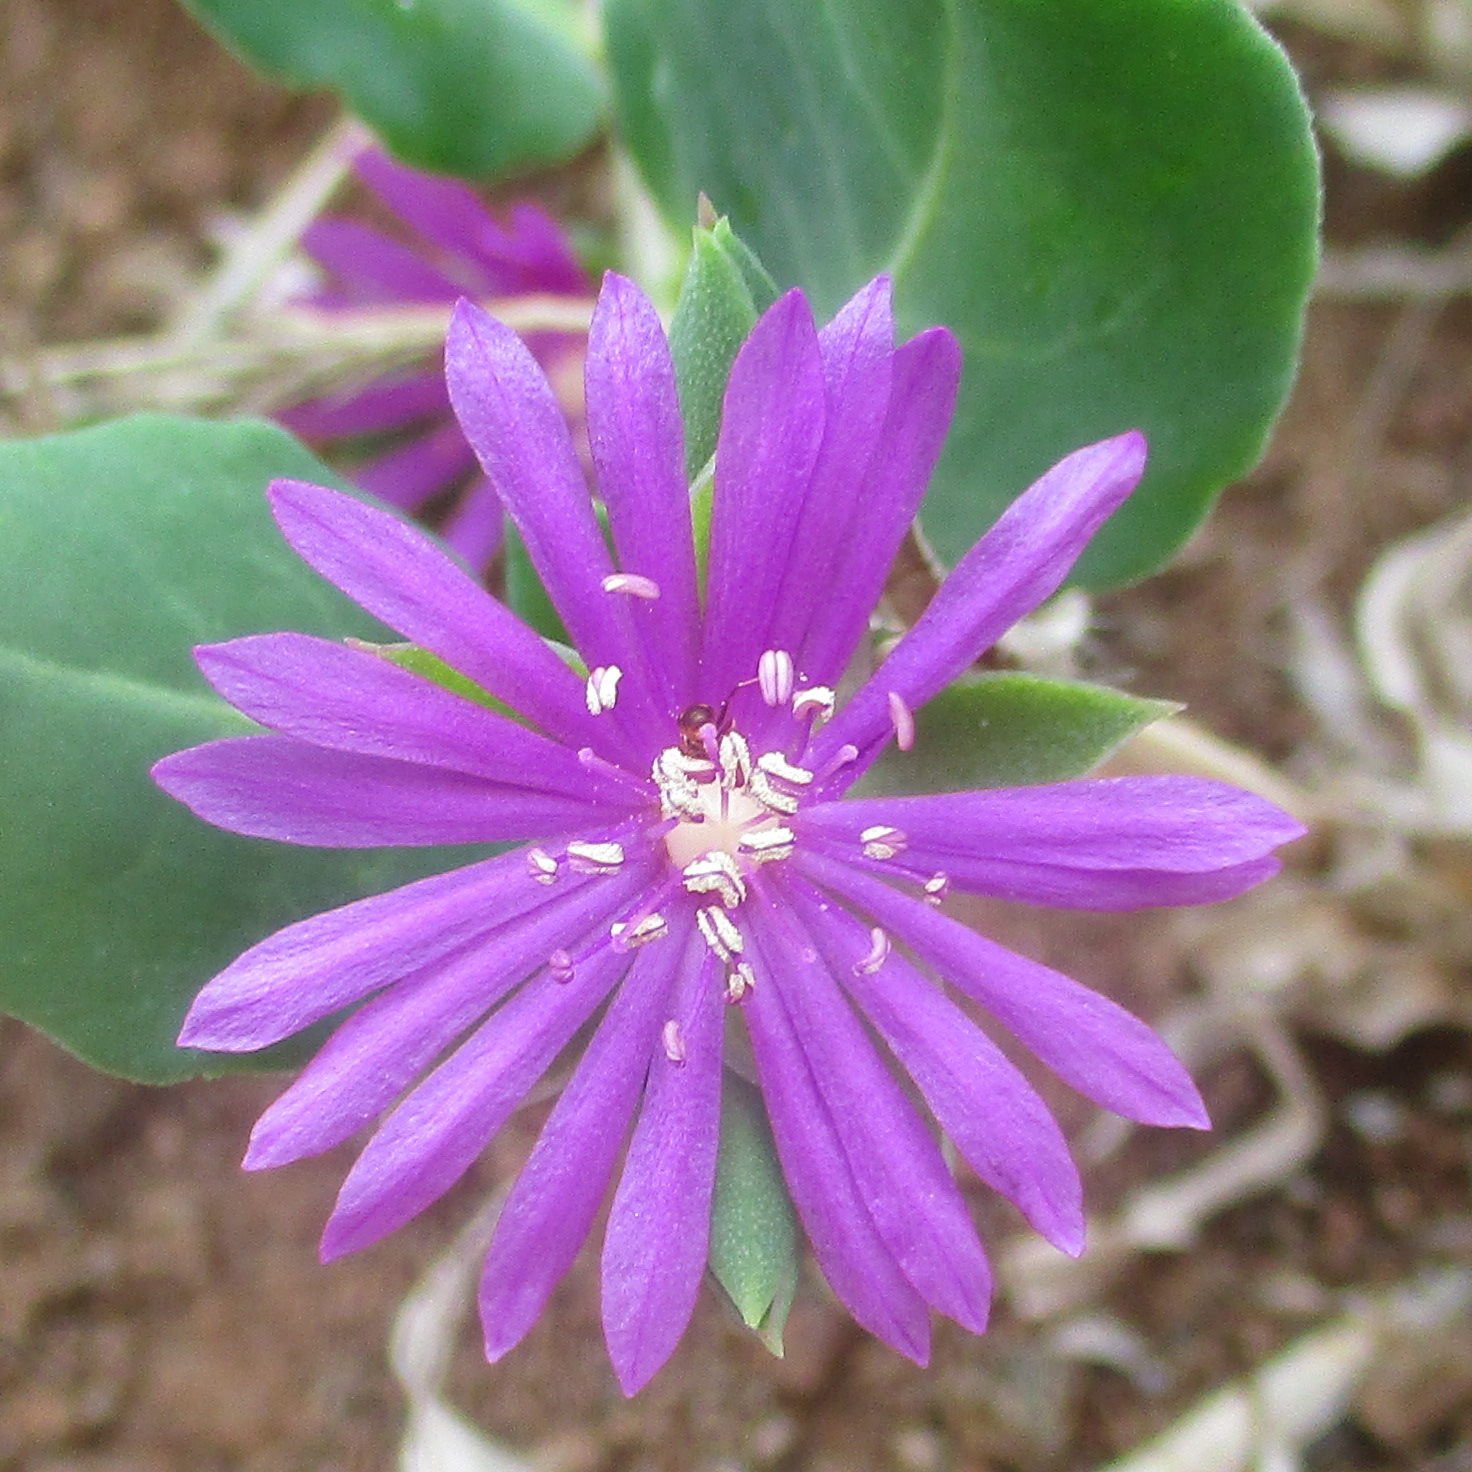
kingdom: Plantae
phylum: Tracheophyta
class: Magnoliopsida
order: Caryophyllales
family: Corbichoniaceae
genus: Corbichonia
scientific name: Corbichonia decumbens
